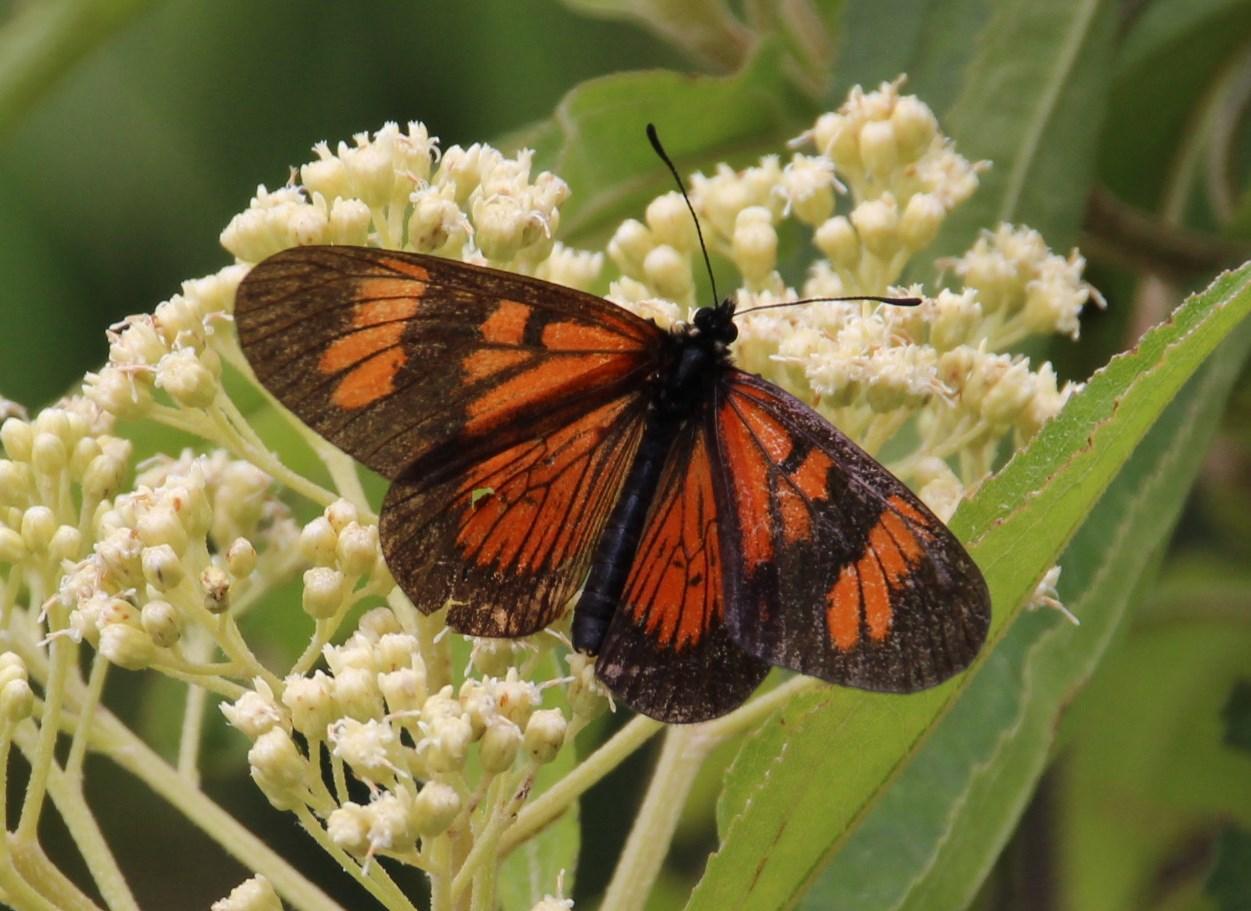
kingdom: Animalia
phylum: Arthropoda
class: Insecta
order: Lepidoptera
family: Nymphalidae
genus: Acraea
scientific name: Acraea rufina
